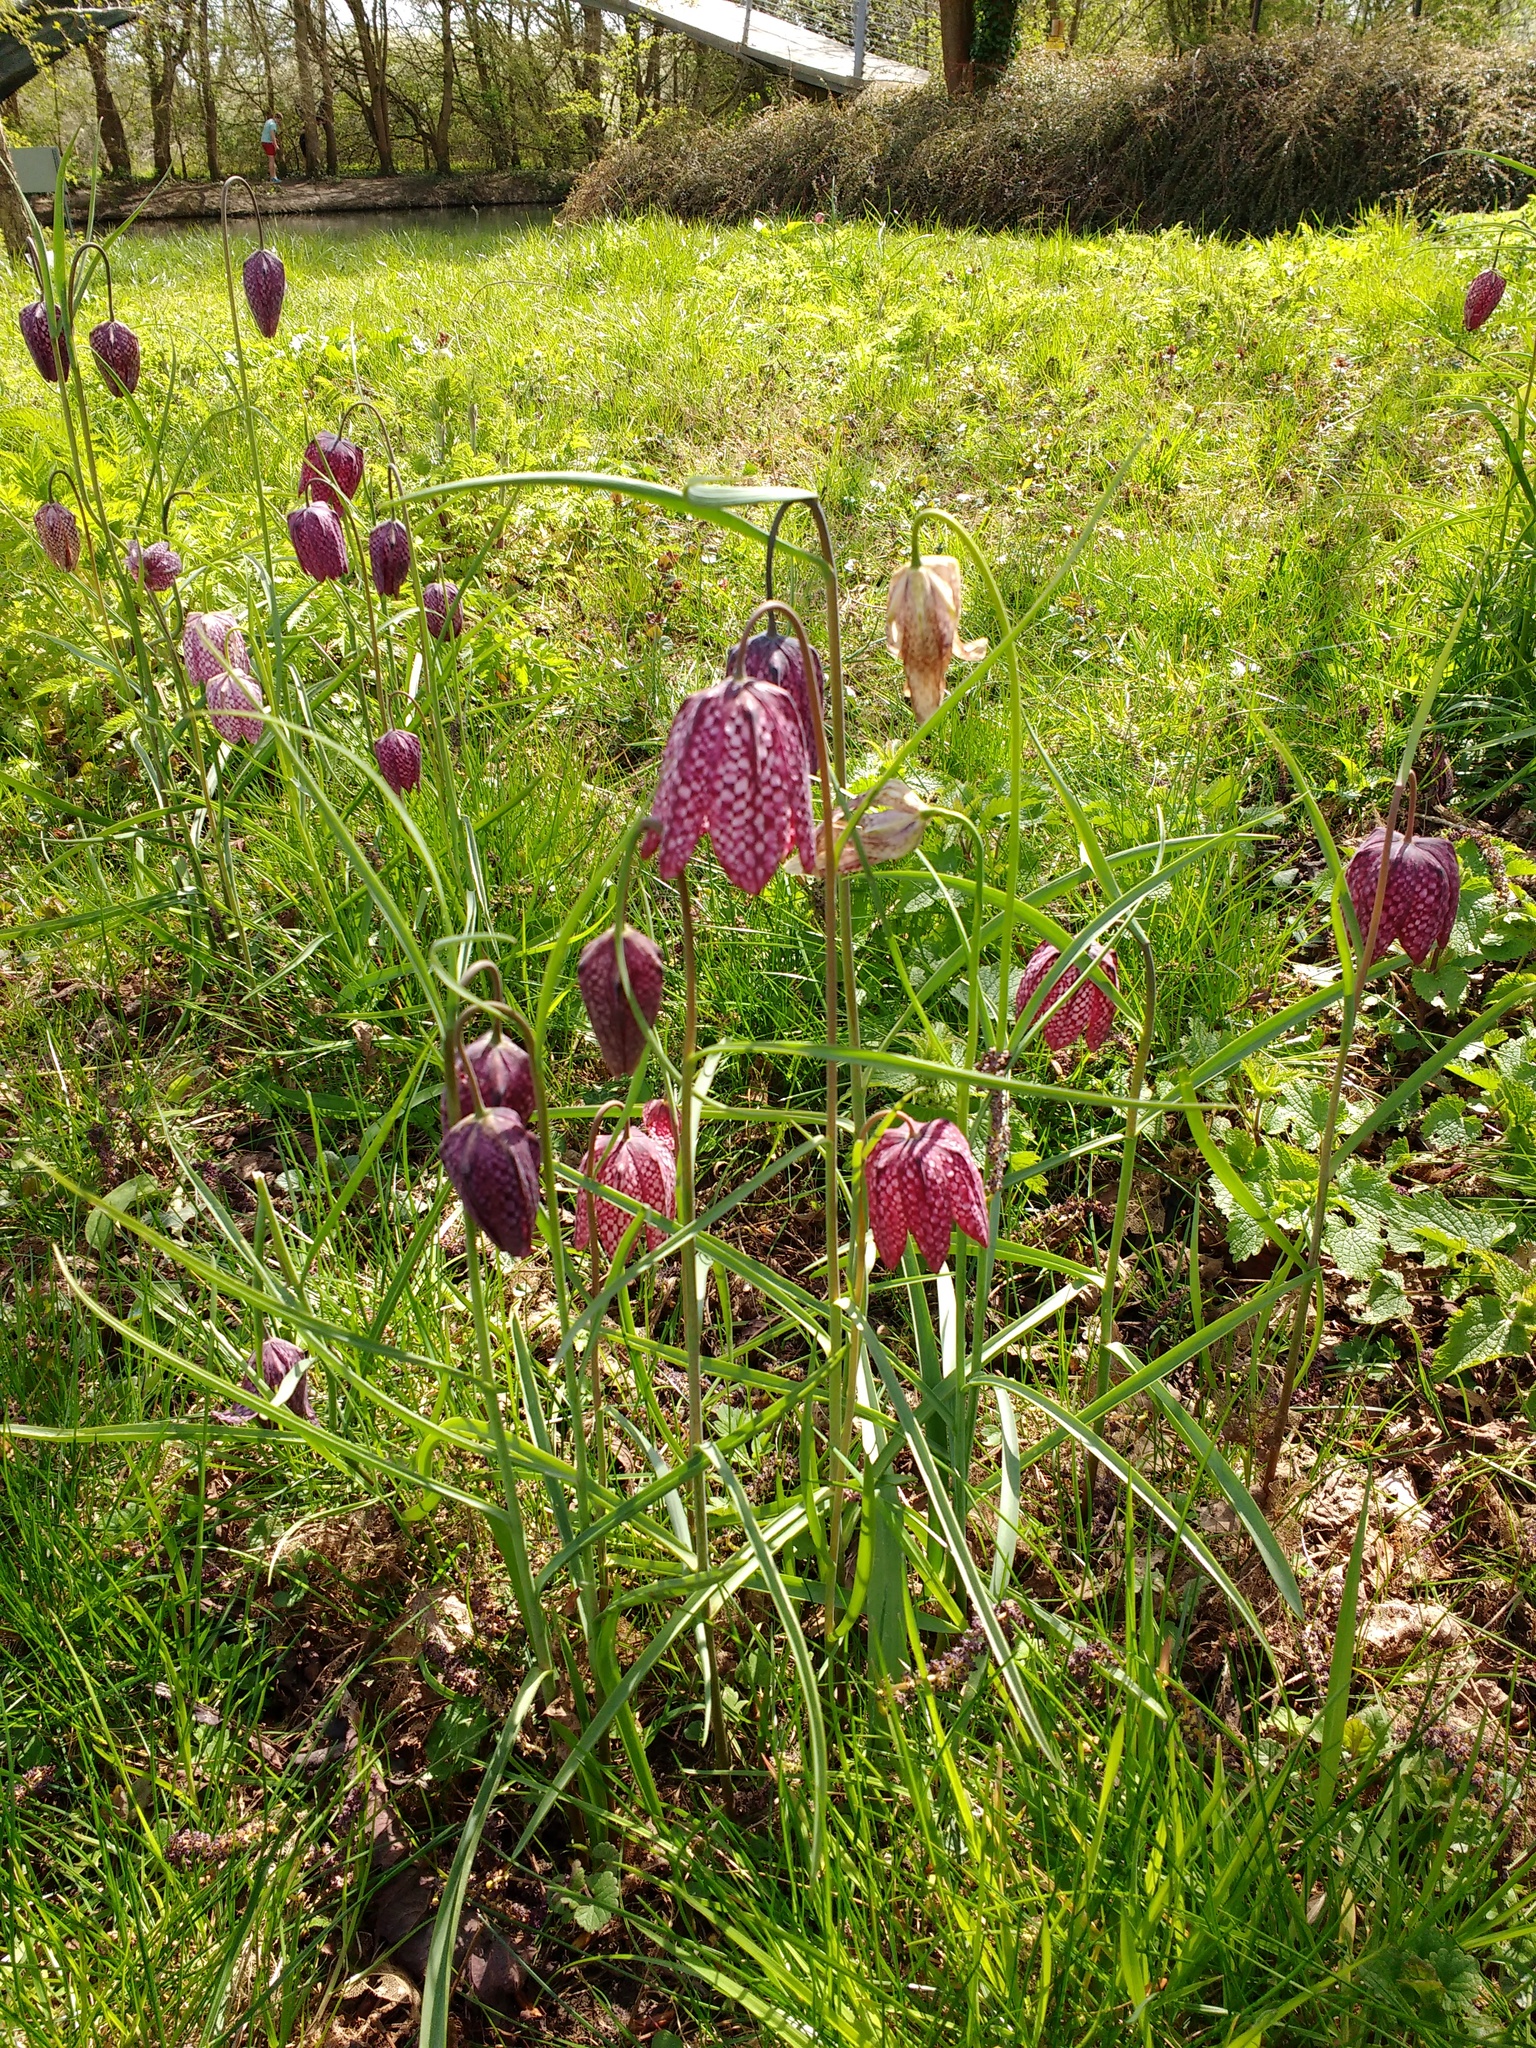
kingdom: Plantae
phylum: Tracheophyta
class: Liliopsida
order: Liliales
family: Liliaceae
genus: Fritillaria
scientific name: Fritillaria meleagris
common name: Fritillary
